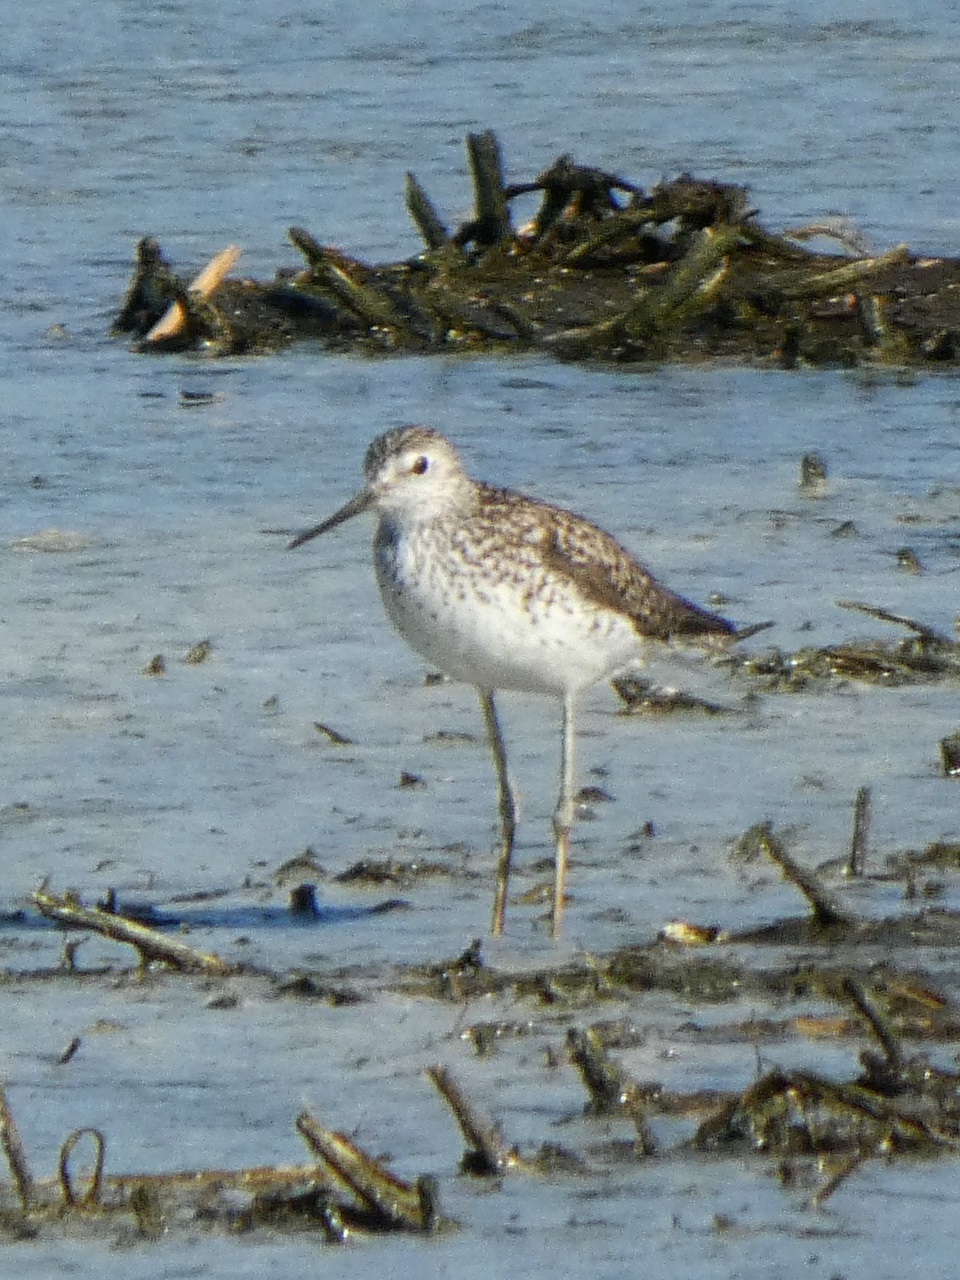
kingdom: Animalia
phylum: Chordata
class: Aves
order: Charadriiformes
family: Scolopacidae
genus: Tringa
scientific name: Tringa stagnatilis
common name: Marsh sandpiper
